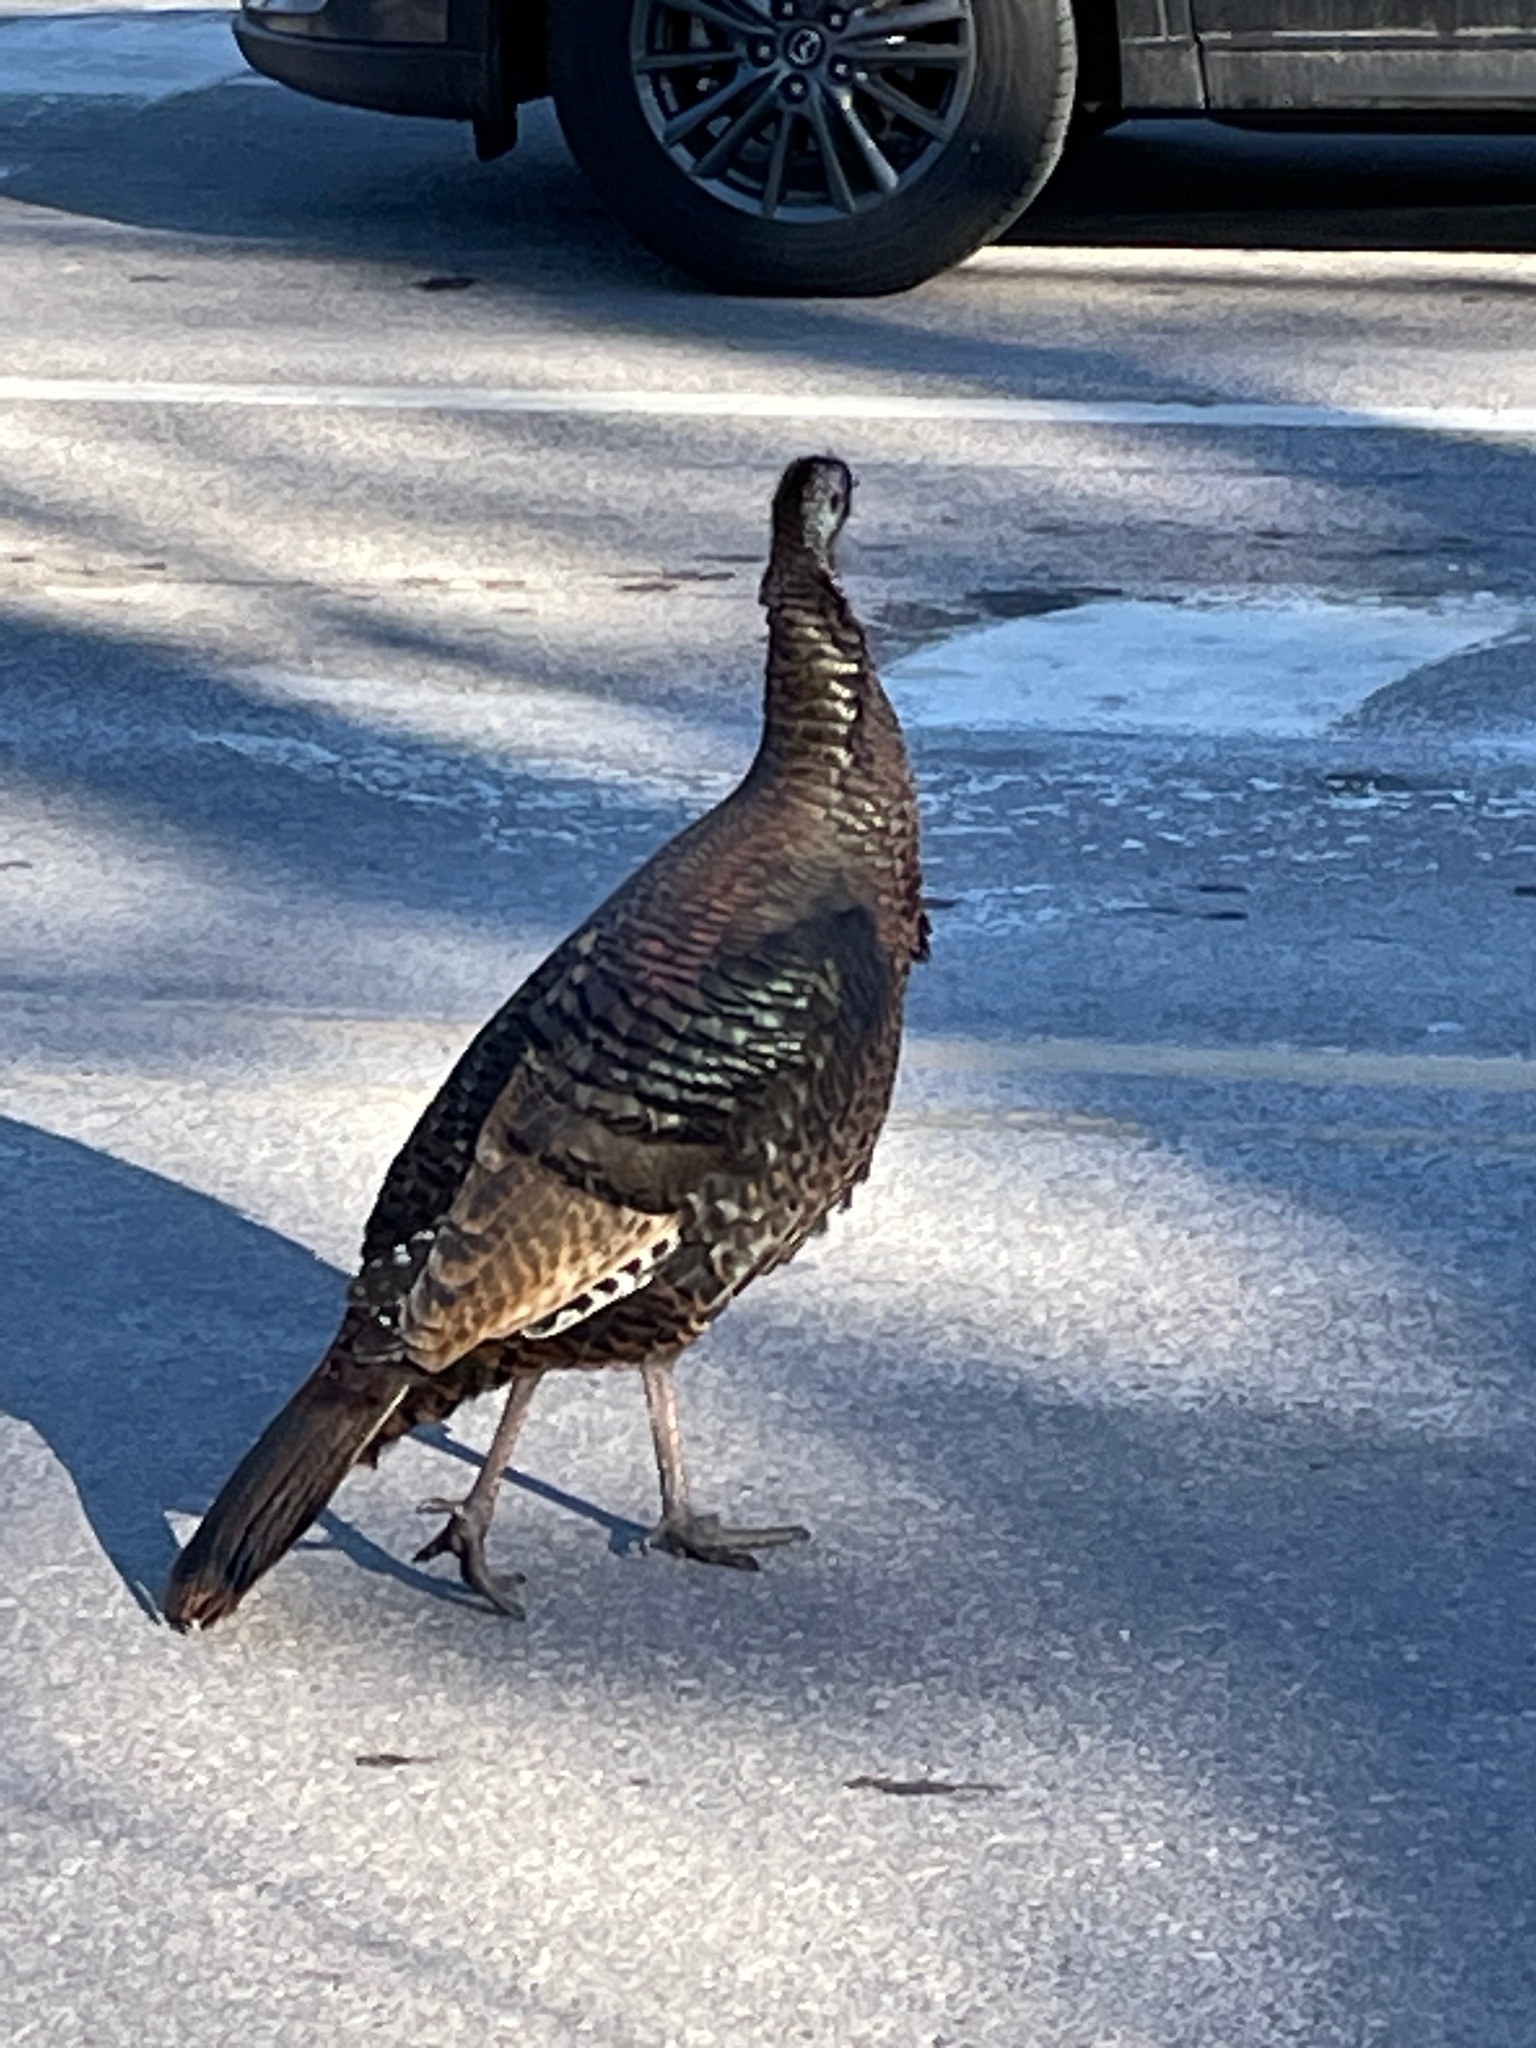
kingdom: Animalia
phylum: Chordata
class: Aves
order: Galliformes
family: Phasianidae
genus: Meleagris
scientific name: Meleagris gallopavo
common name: Wild turkey
